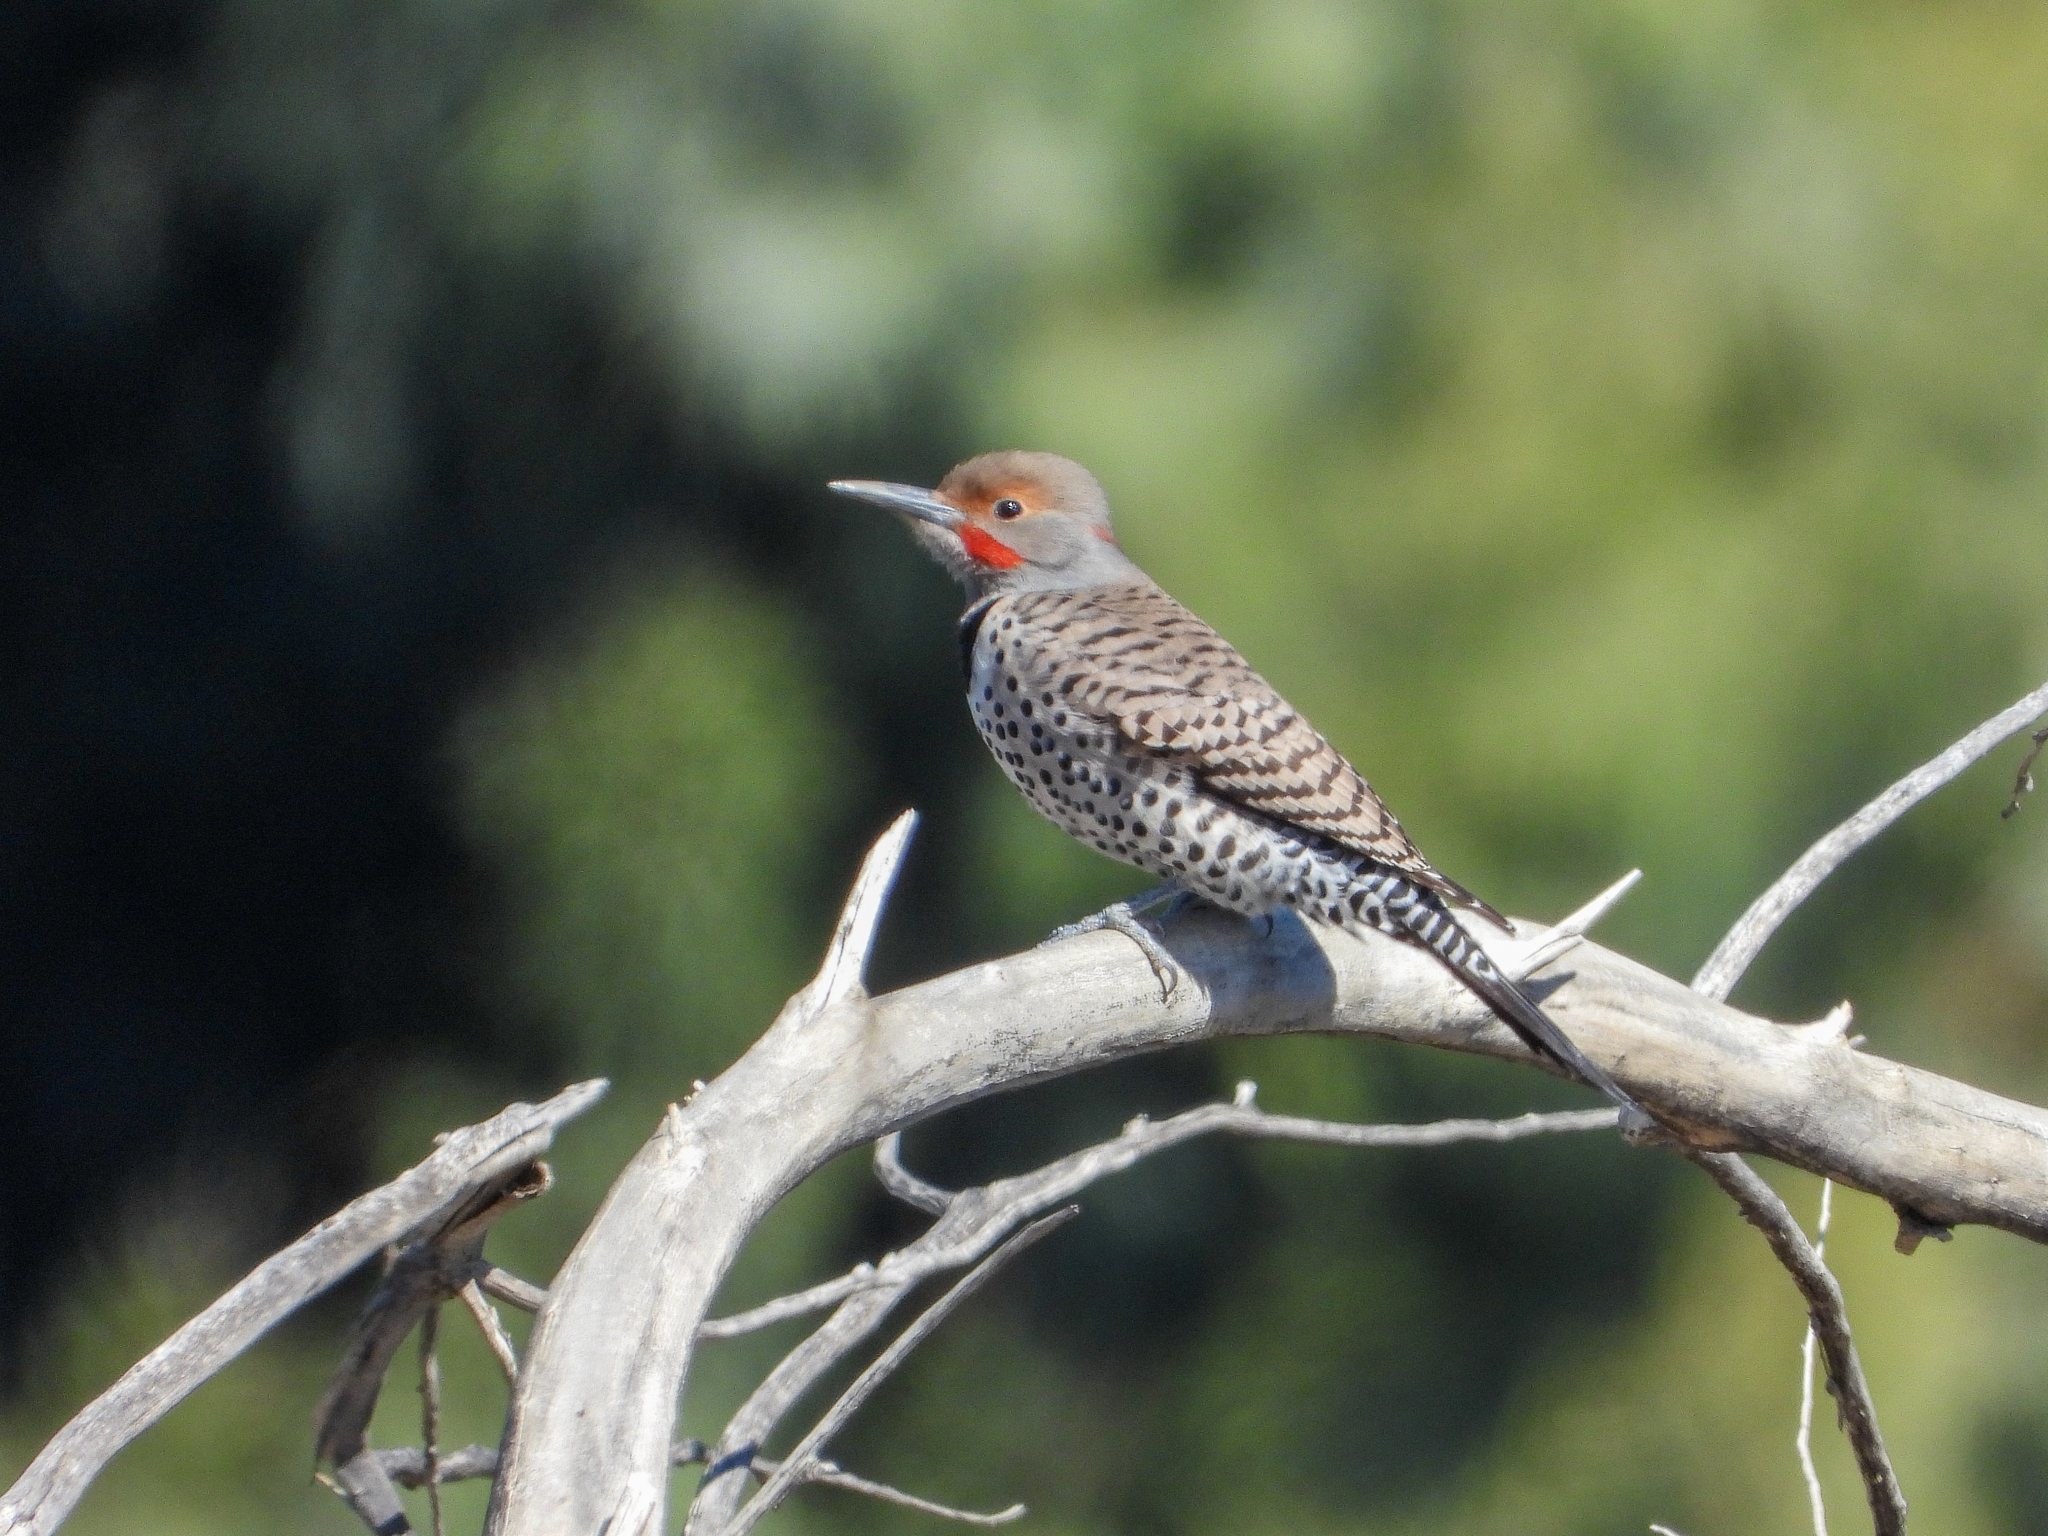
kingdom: Animalia
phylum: Chordata
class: Aves
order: Piciformes
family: Picidae
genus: Colaptes
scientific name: Colaptes auratus
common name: Northern flicker
